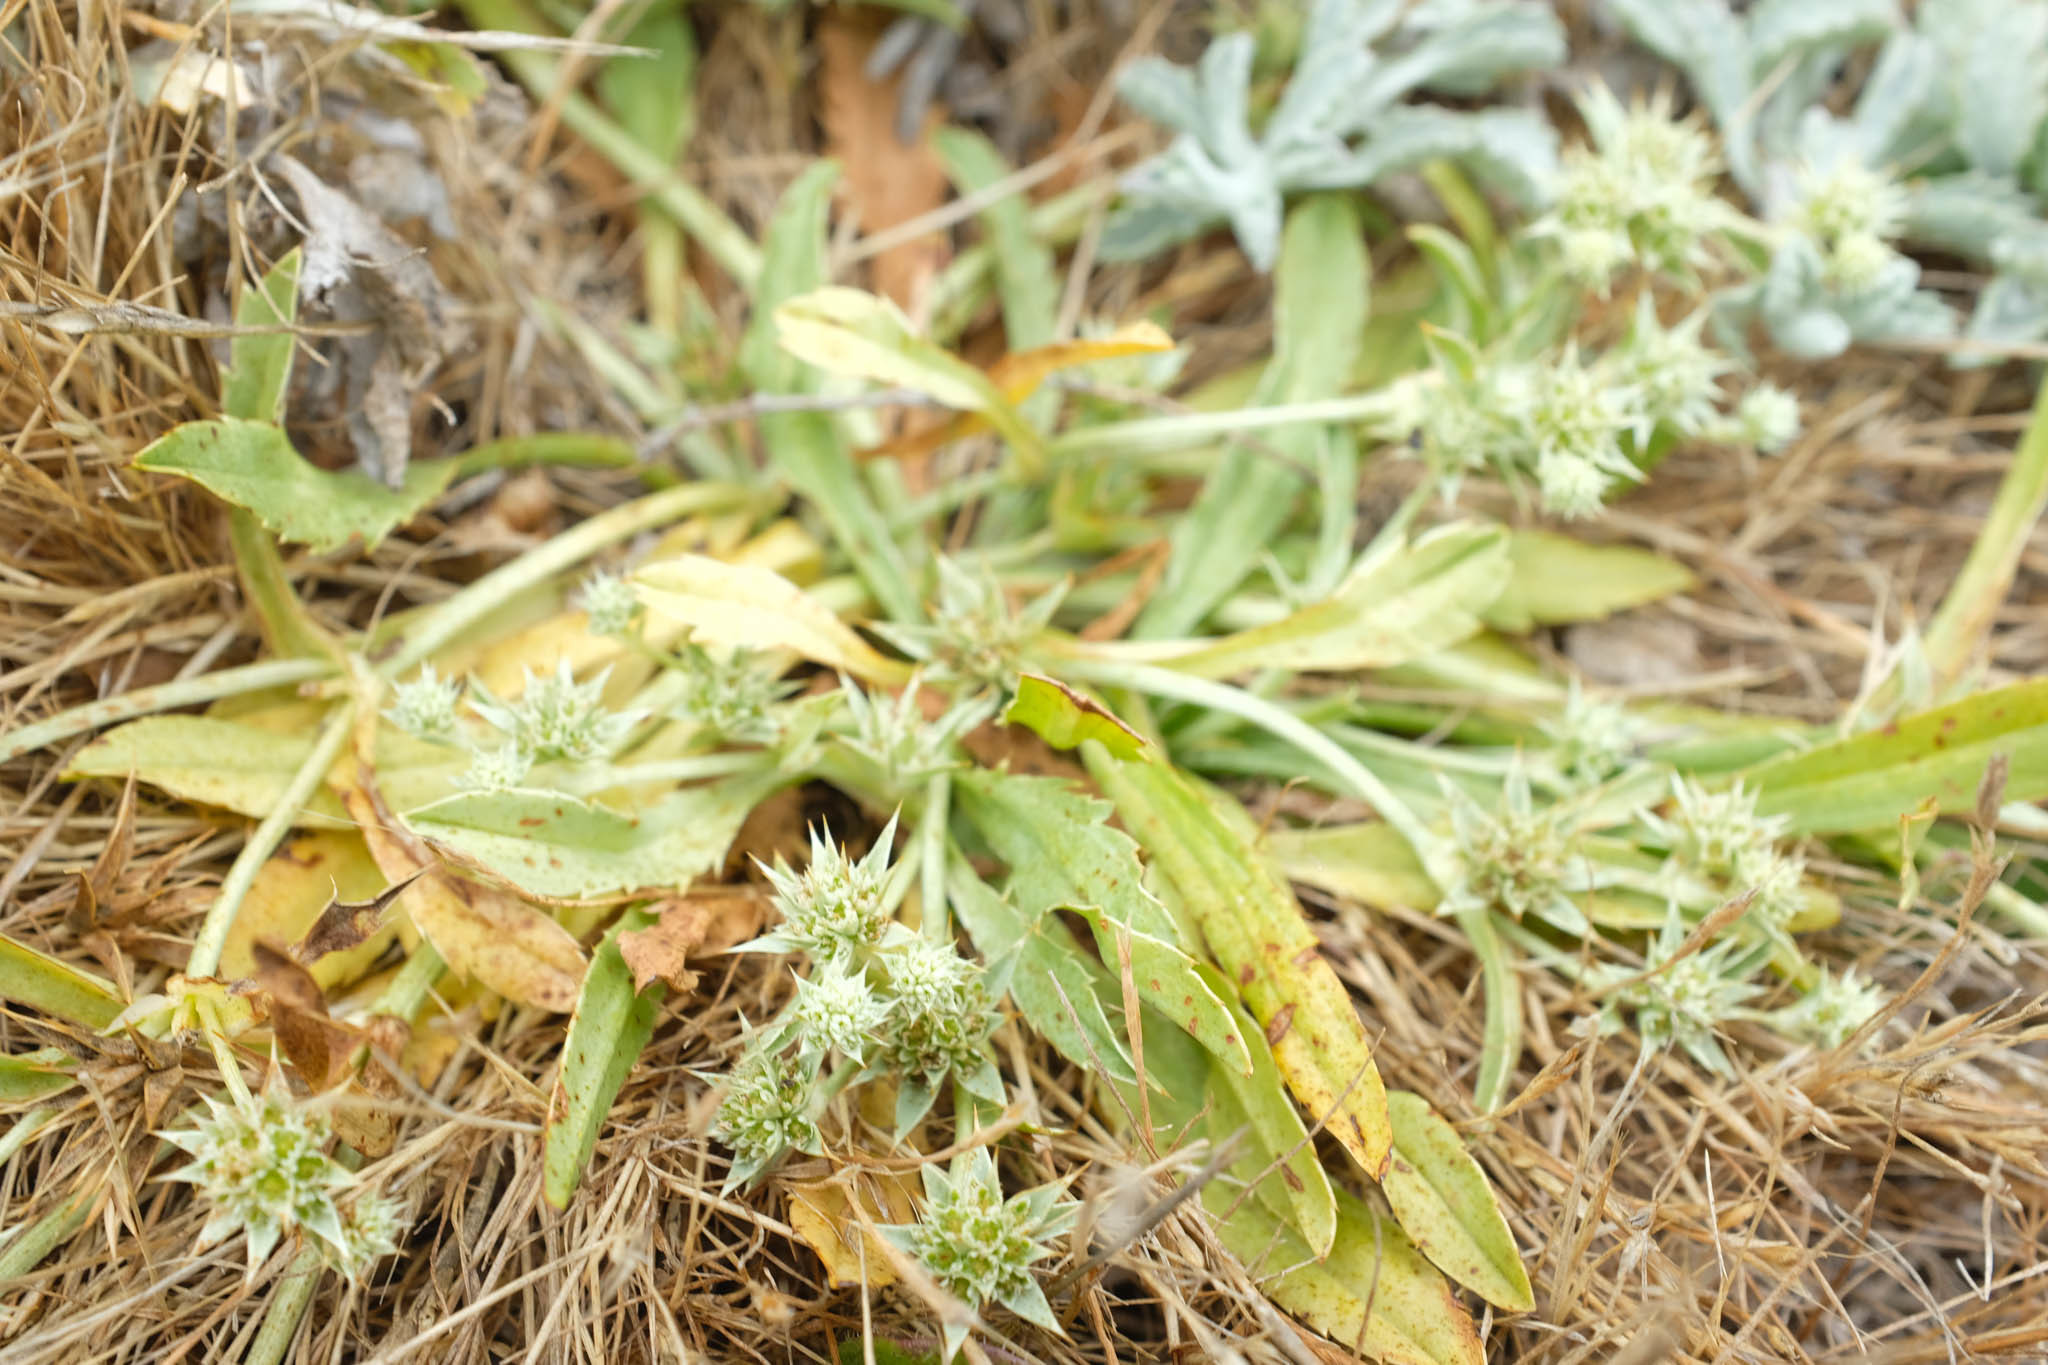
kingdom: Plantae
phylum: Tracheophyta
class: Magnoliopsida
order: Apiales
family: Apiaceae
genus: Eryngium
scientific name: Eryngium armatum
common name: Coyote thistle
